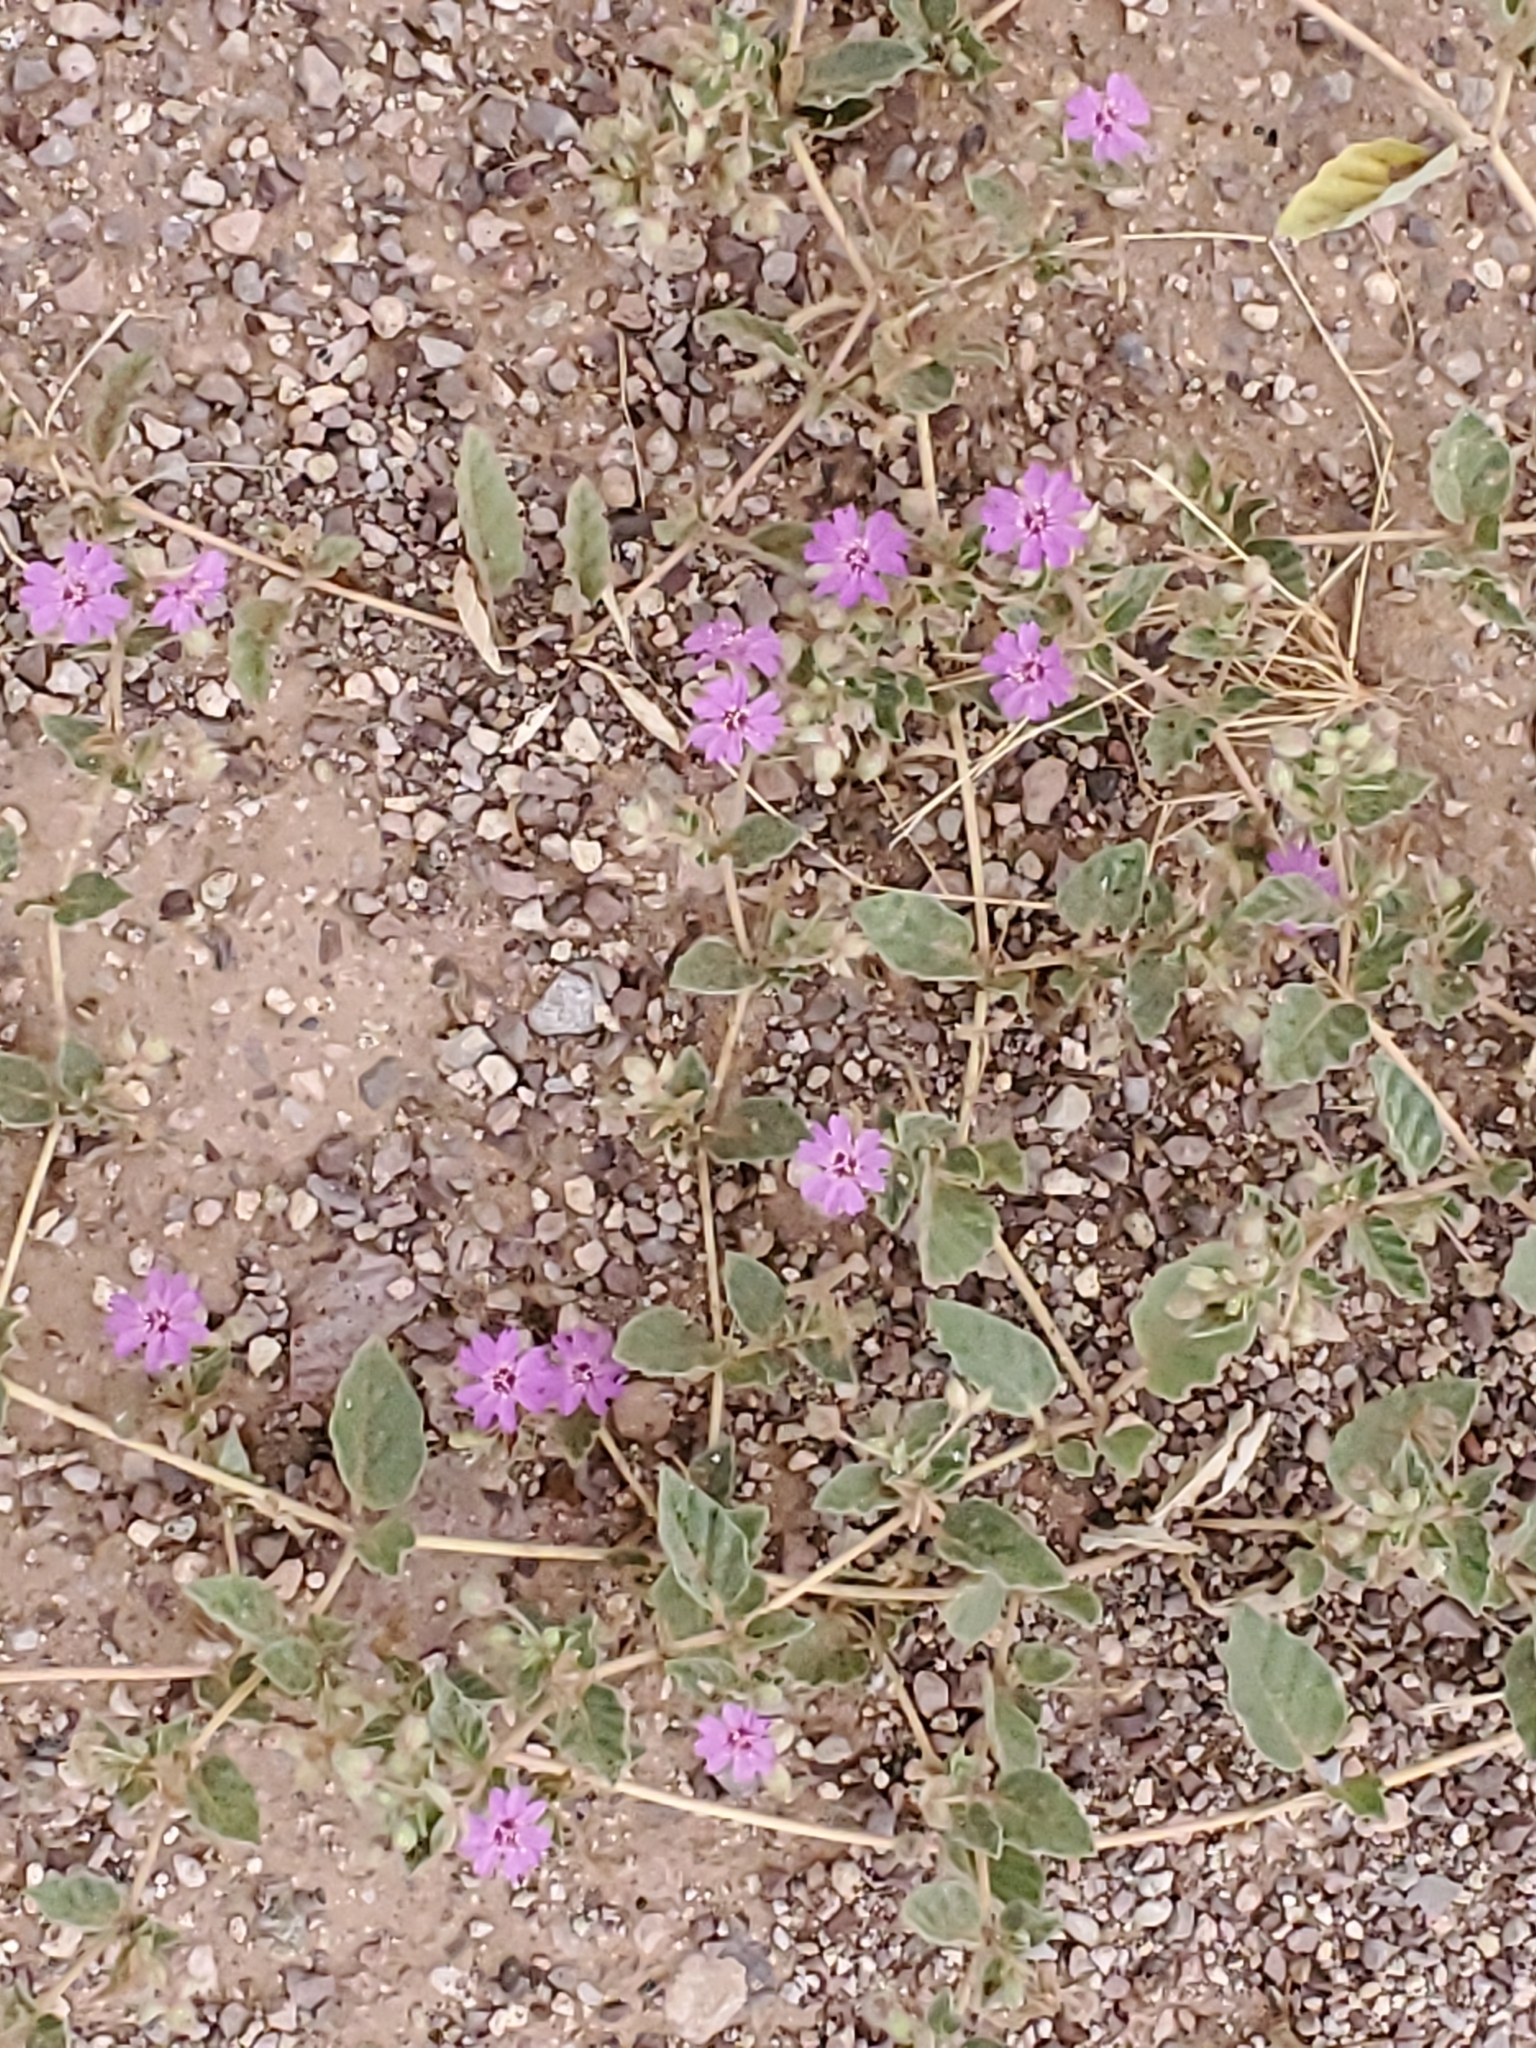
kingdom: Plantae
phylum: Tracheophyta
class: Magnoliopsida
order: Caryophyllales
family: Nyctaginaceae
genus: Allionia
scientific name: Allionia incarnata
